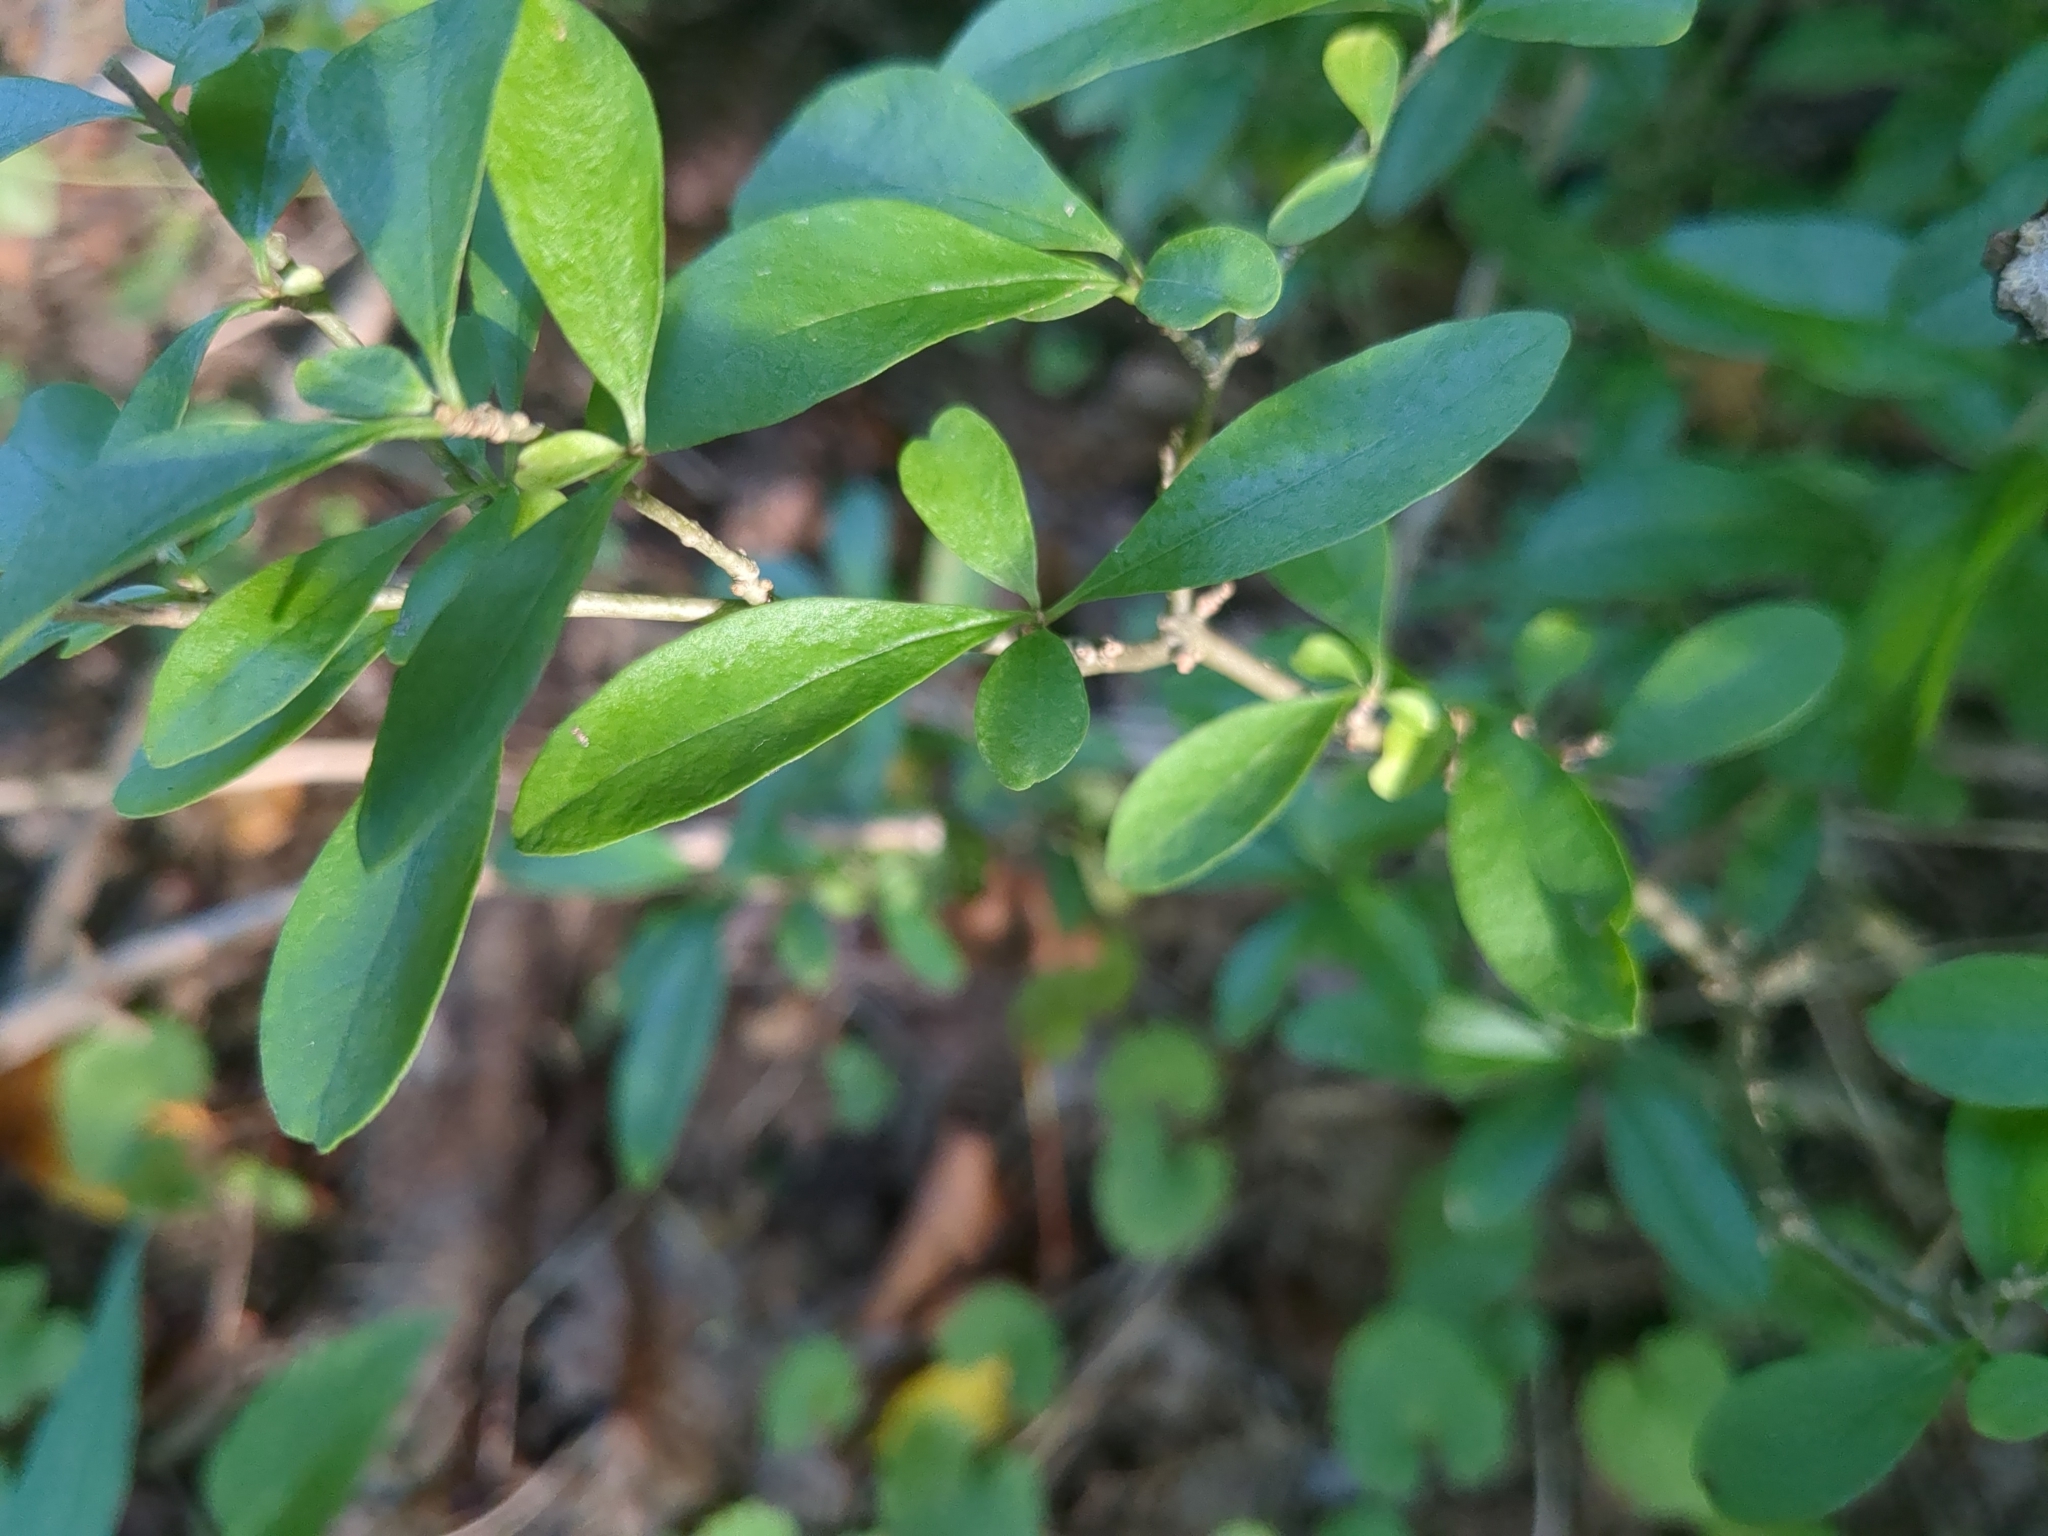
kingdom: Plantae
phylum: Tracheophyta
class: Magnoliopsida
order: Lamiales
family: Oleaceae
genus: Ligustrum
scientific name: Ligustrum obtusifolium
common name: Border privet
